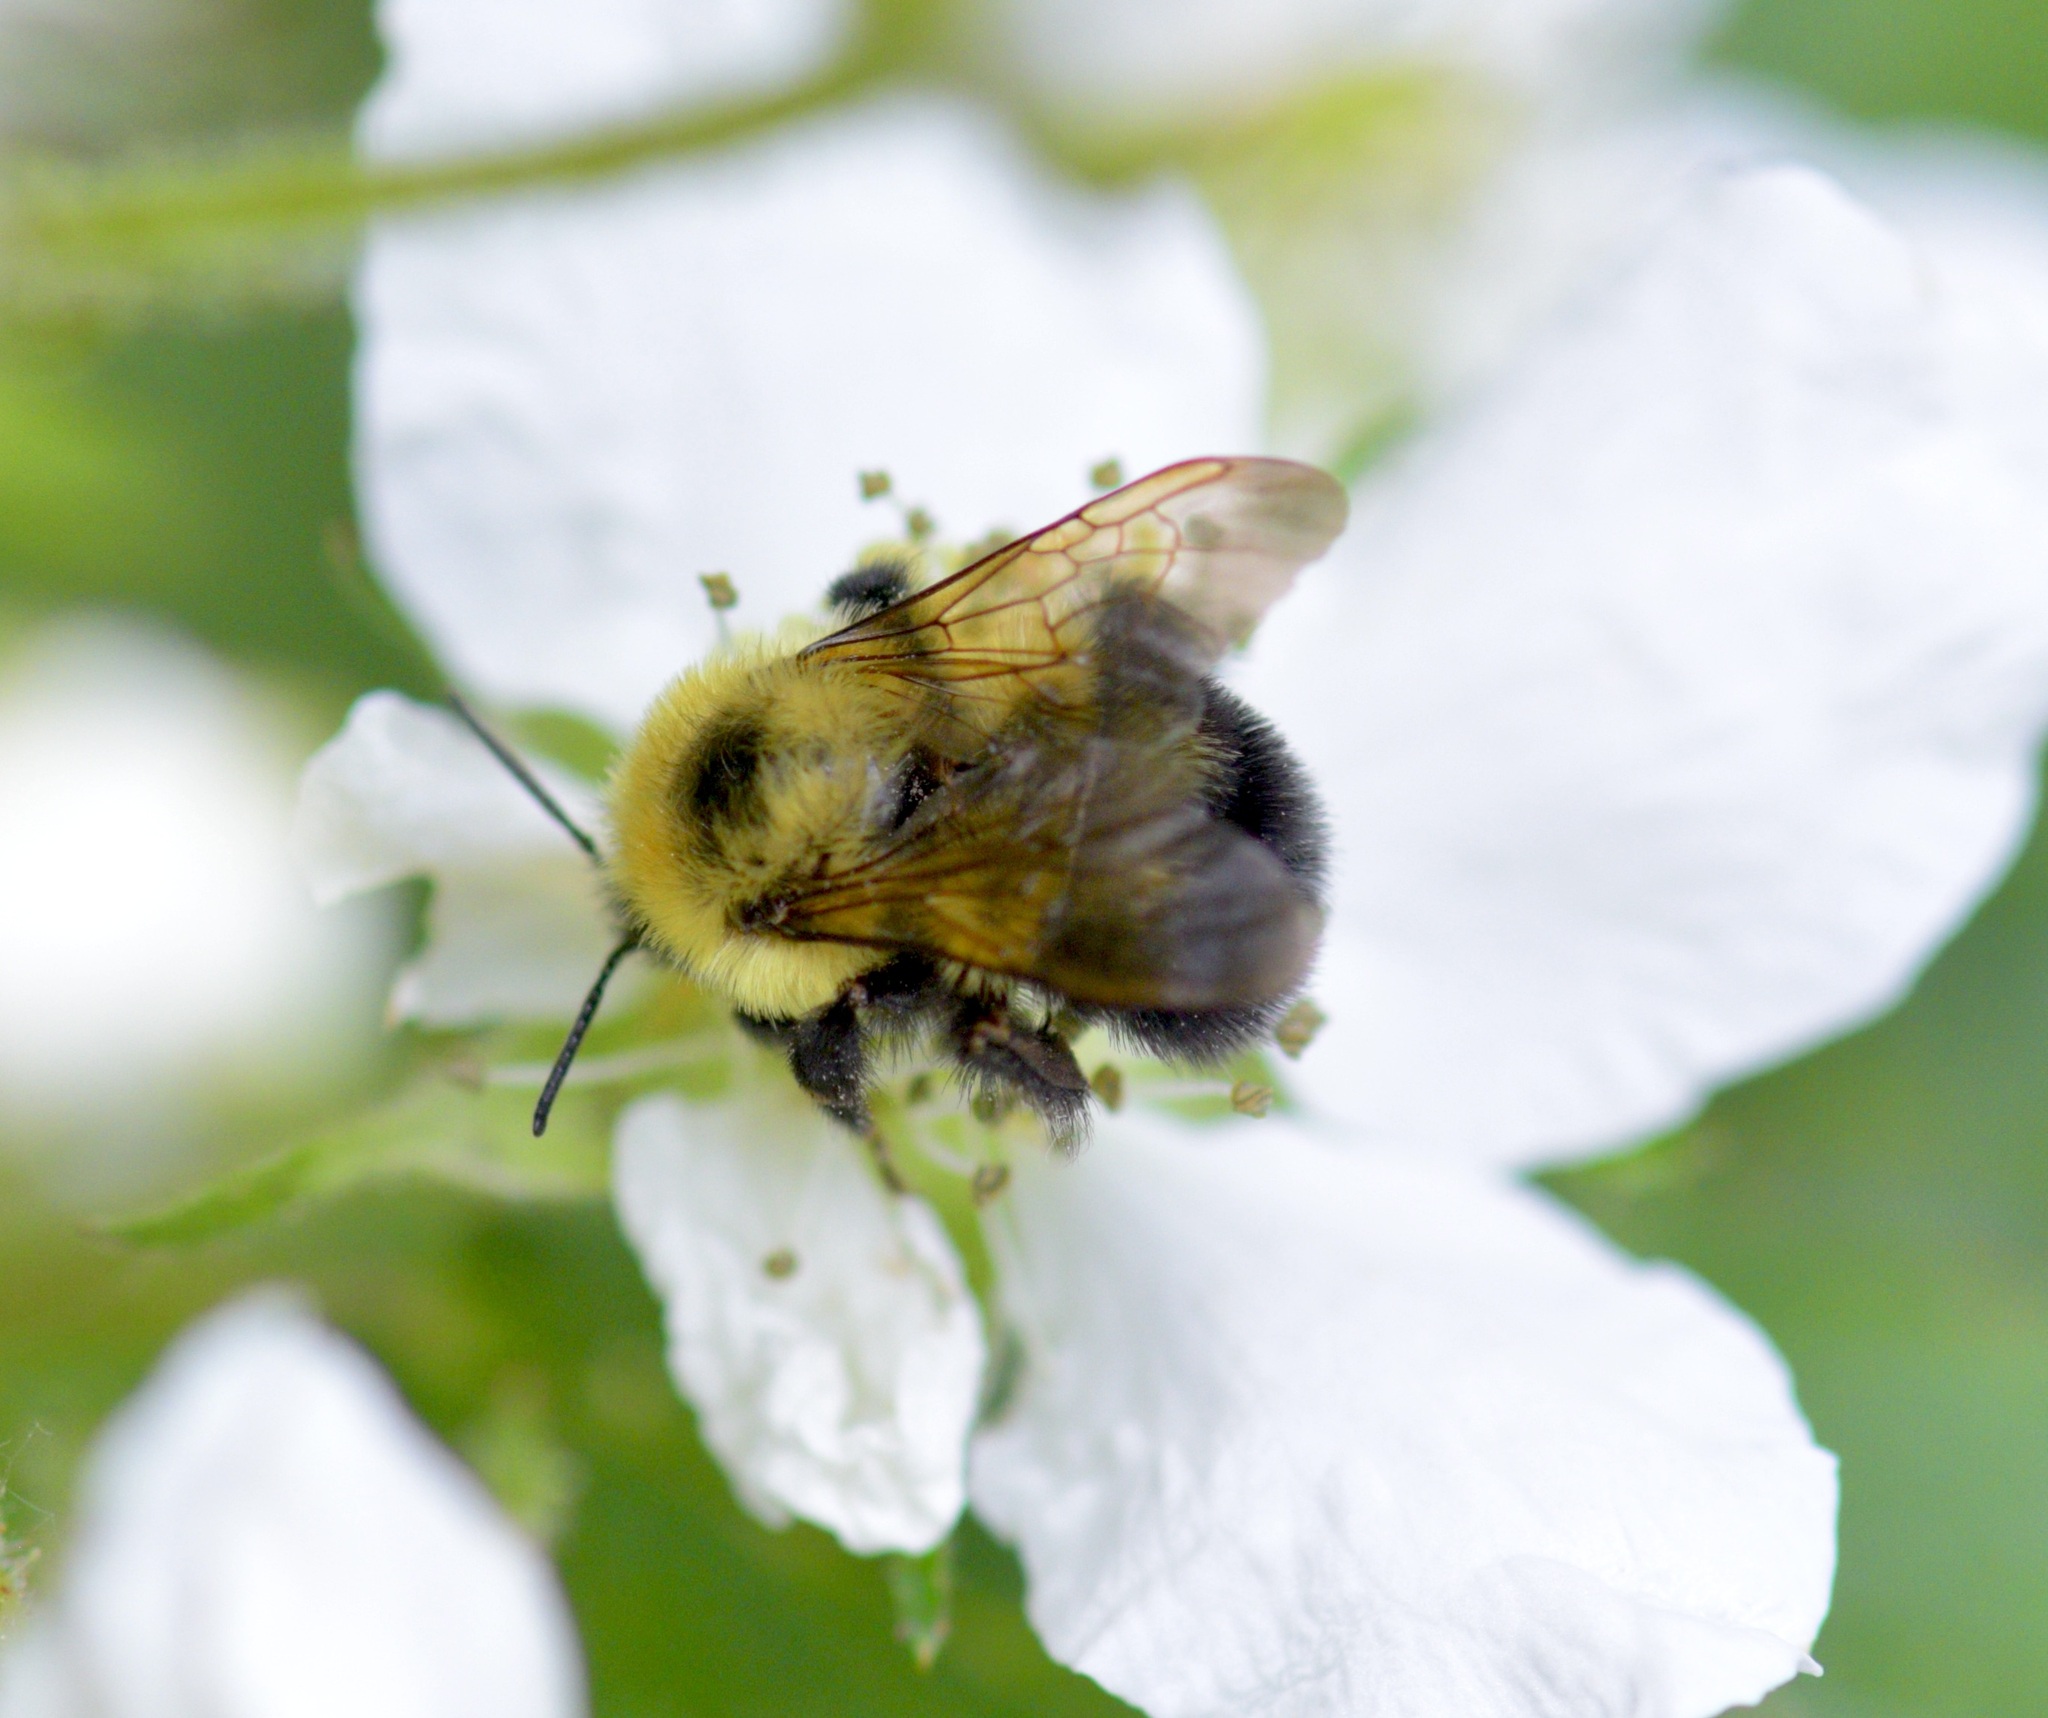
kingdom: Animalia
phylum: Arthropoda
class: Insecta
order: Hymenoptera
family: Apidae
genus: Bombus
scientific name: Bombus bimaculatus
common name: Two-spotted bumble bee
